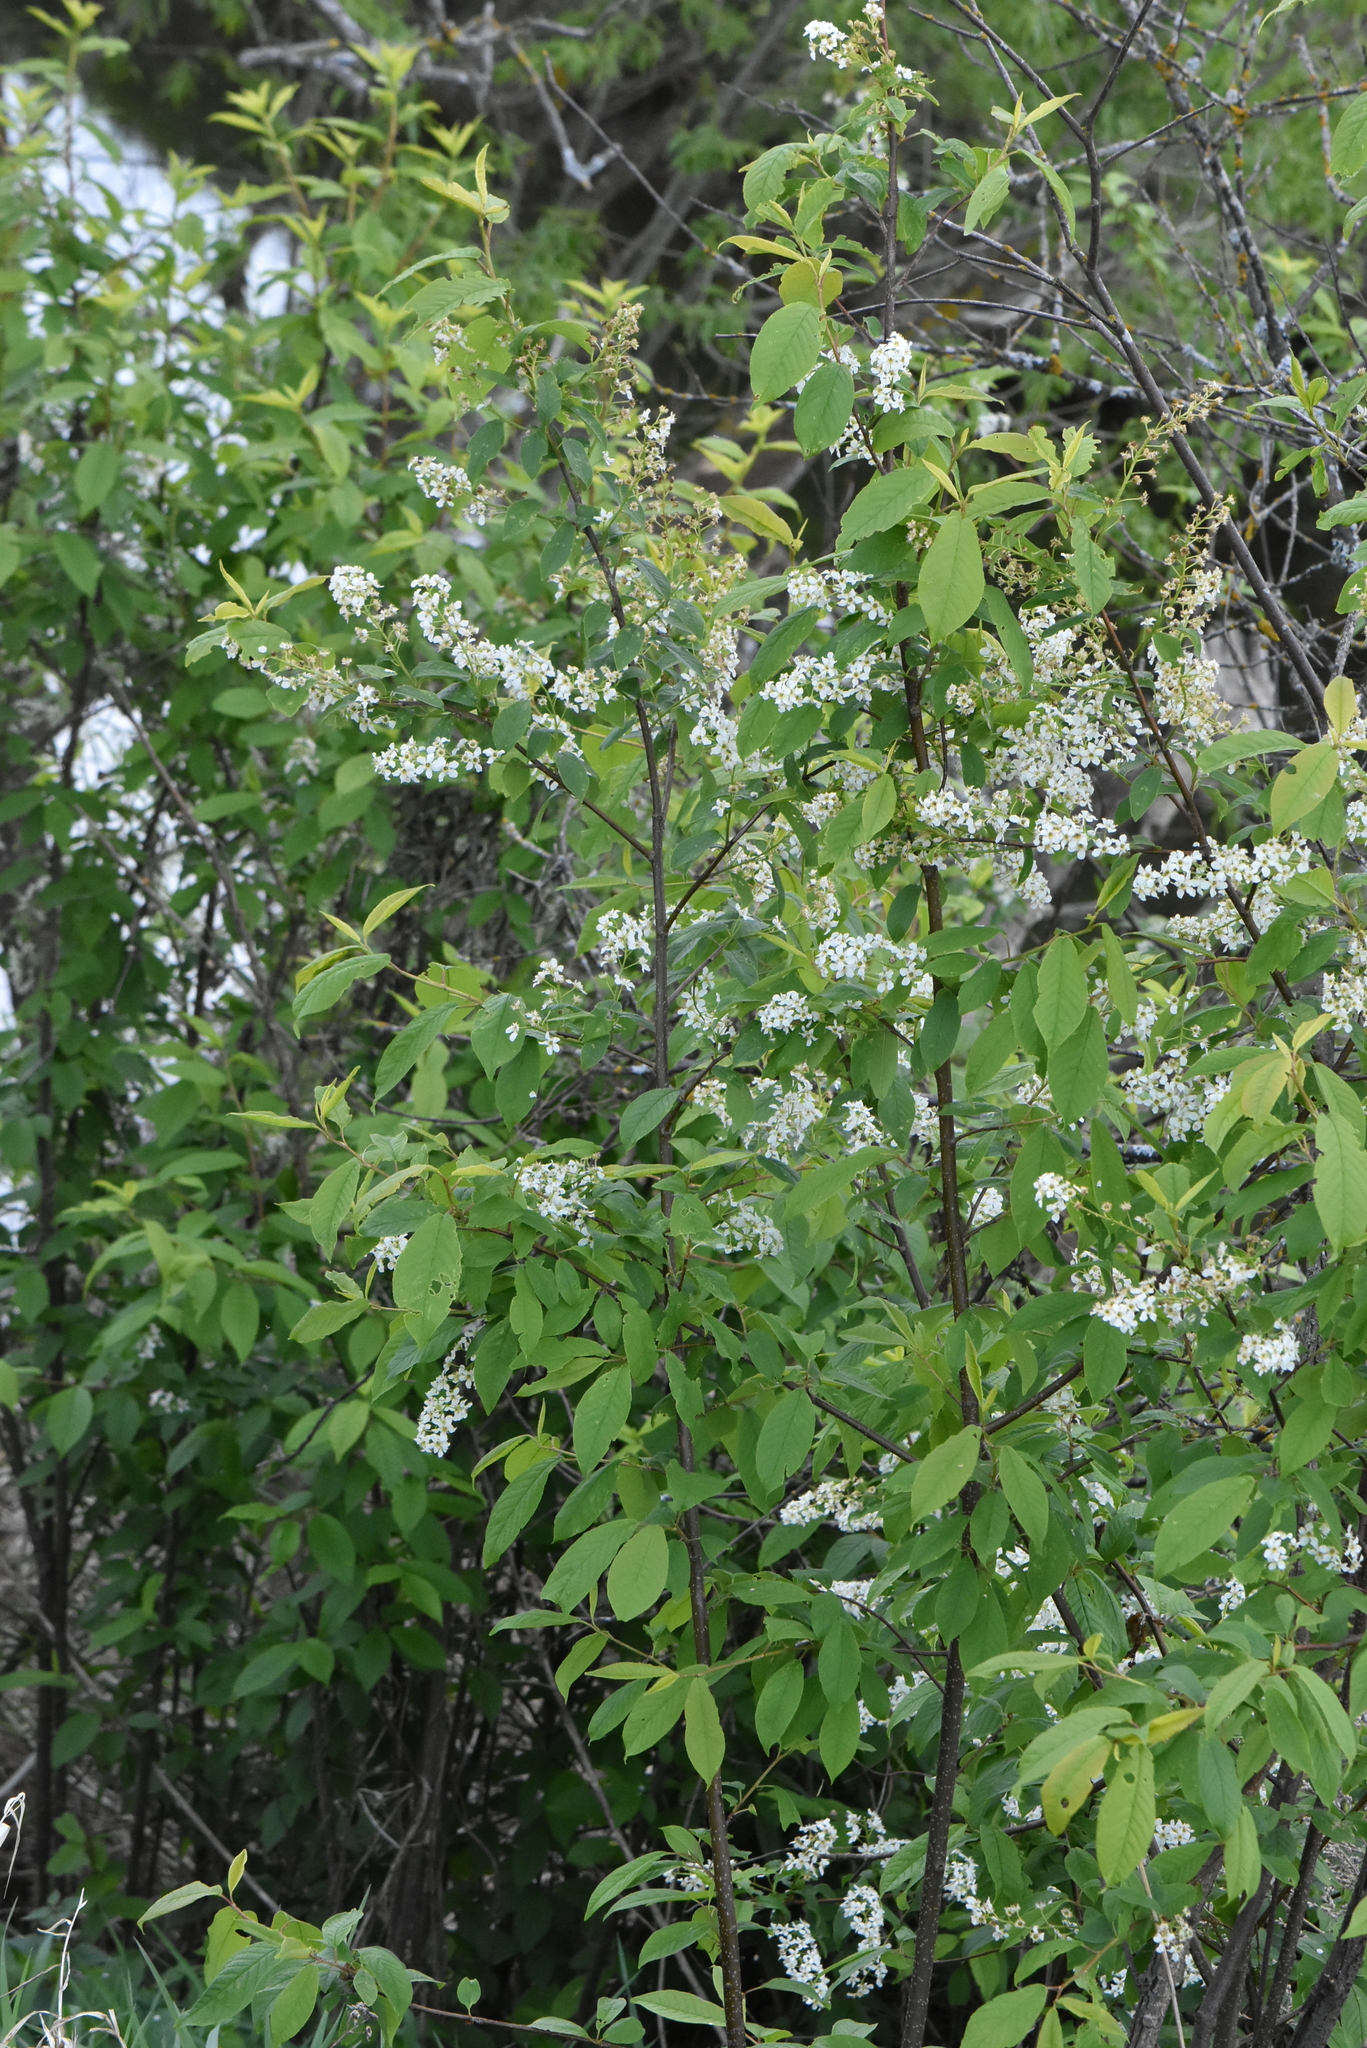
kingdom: Plantae
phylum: Tracheophyta
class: Magnoliopsida
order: Rosales
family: Rosaceae
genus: Prunus
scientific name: Prunus padus
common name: Bird cherry
